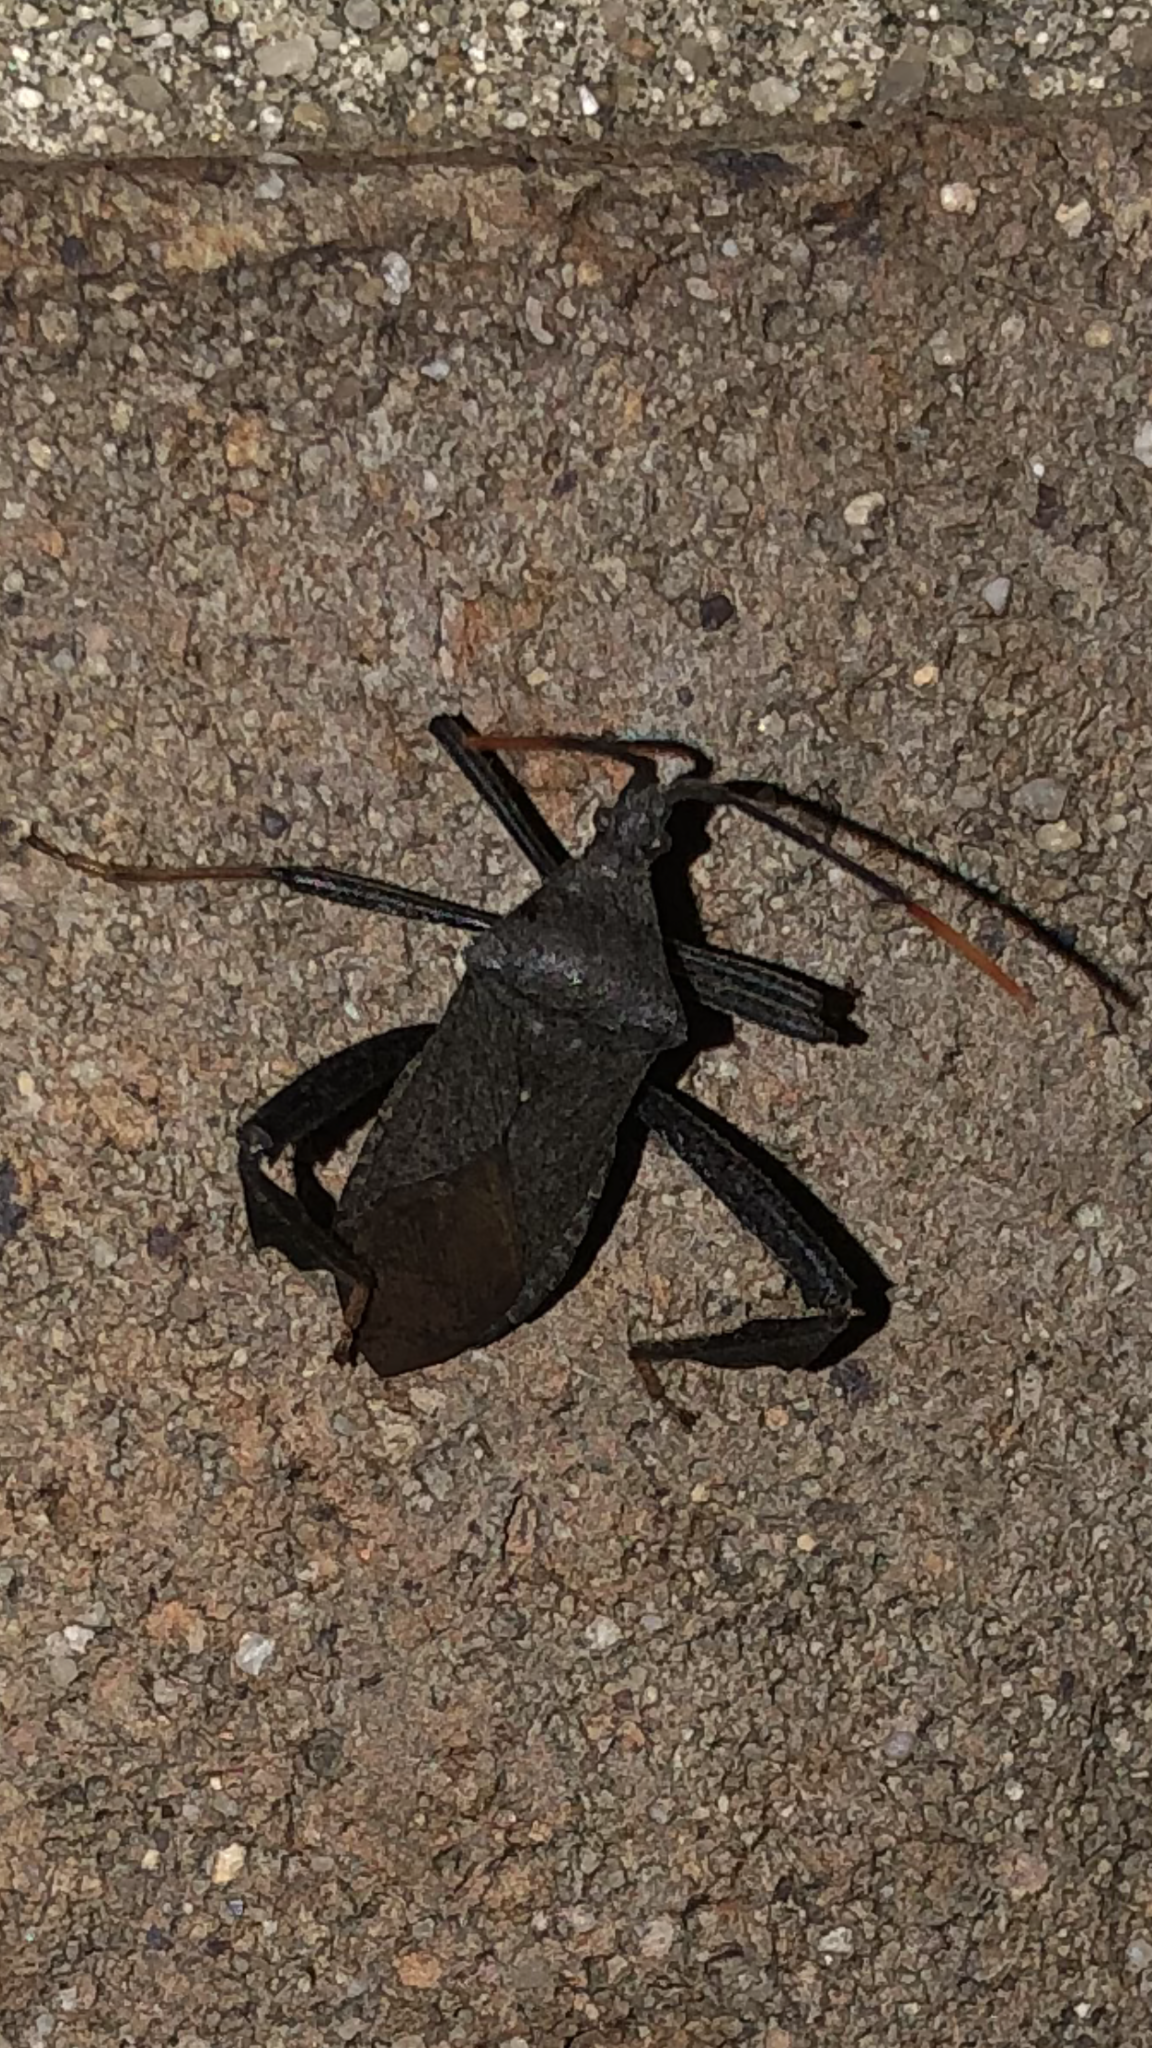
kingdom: Animalia
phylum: Arthropoda
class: Insecta
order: Hemiptera
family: Coreidae
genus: Acanthocephala
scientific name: Acanthocephala terminalis
